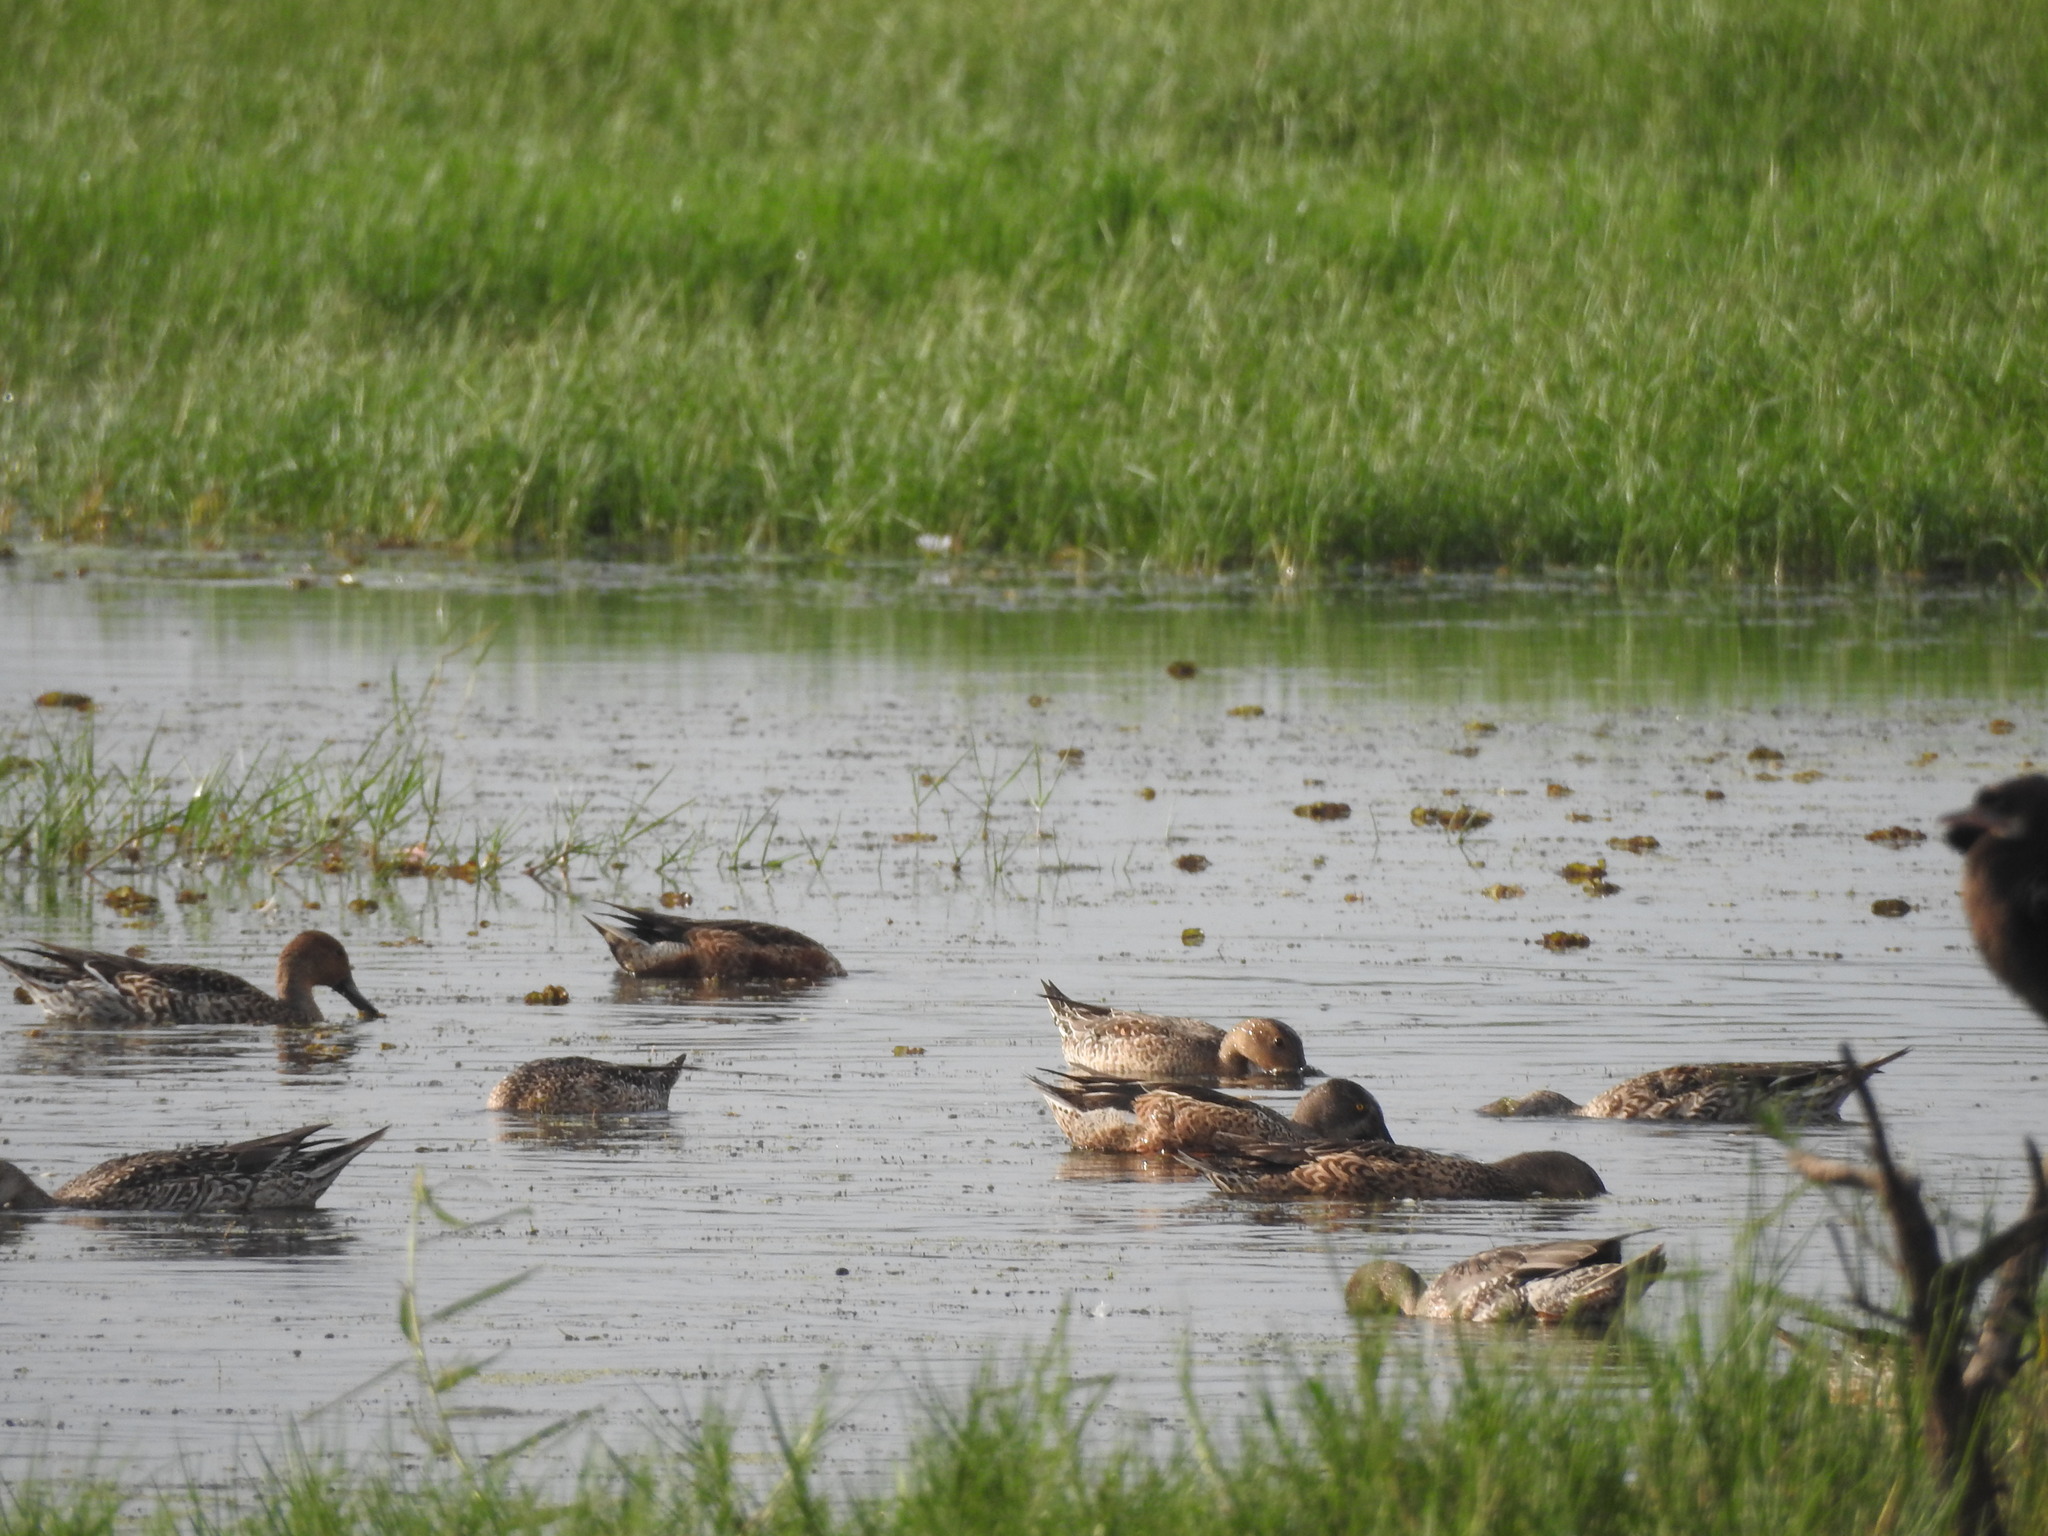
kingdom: Animalia
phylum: Chordata
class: Aves
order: Anseriformes
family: Anatidae
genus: Anas
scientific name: Anas acuta
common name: Northern pintail
